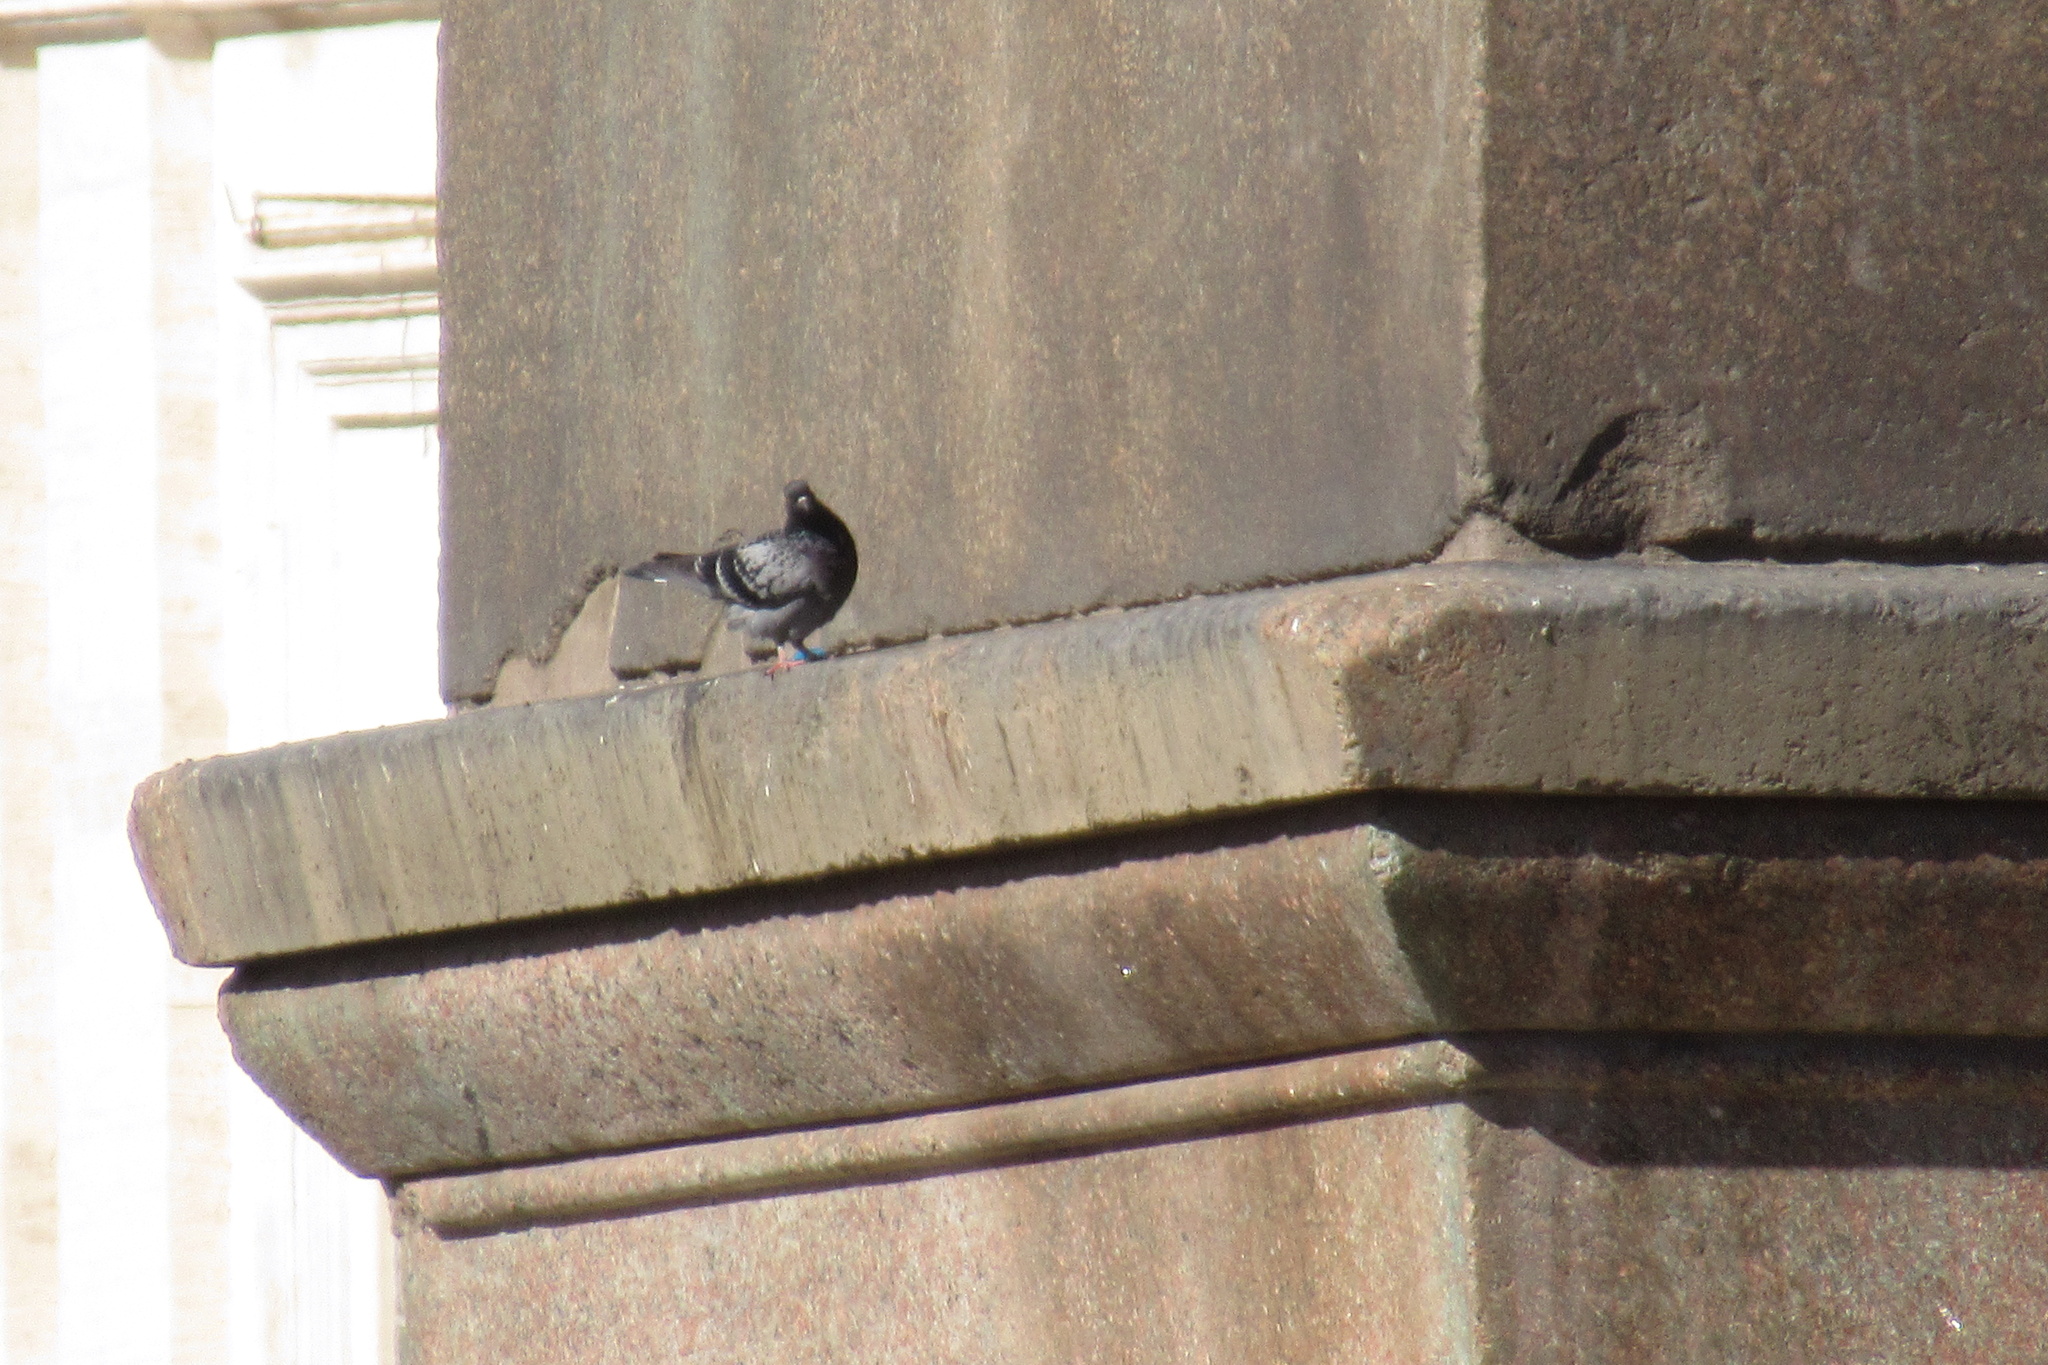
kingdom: Animalia
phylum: Chordata
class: Aves
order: Columbiformes
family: Columbidae
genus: Columba
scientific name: Columba livia
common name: Rock pigeon
